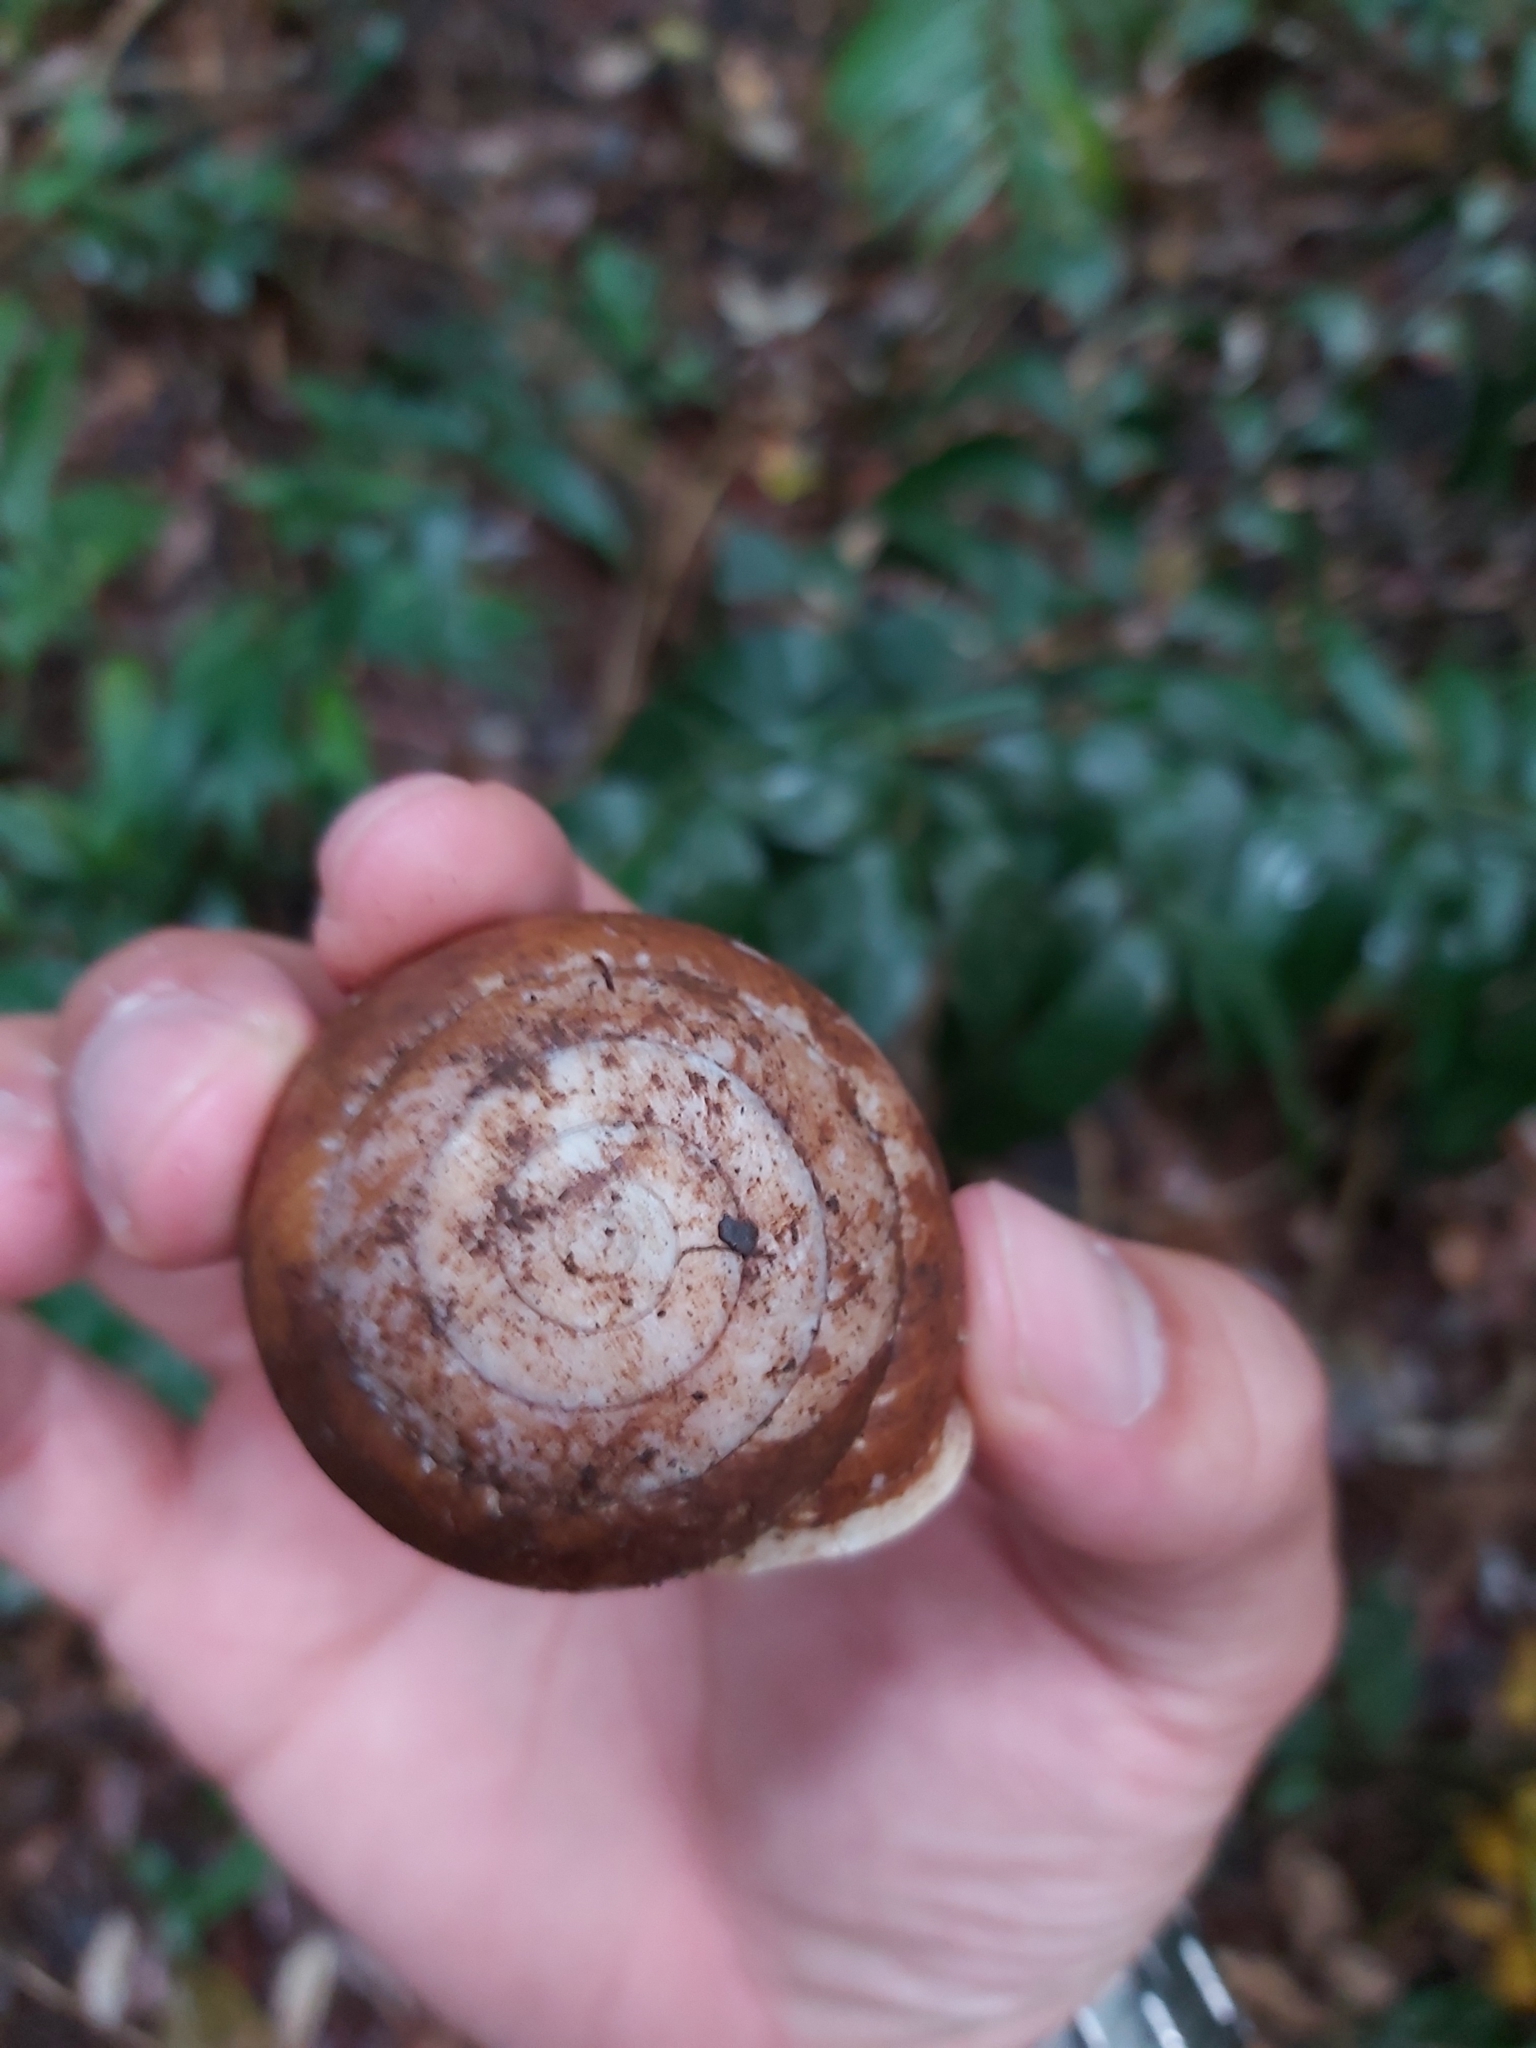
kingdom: Animalia
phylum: Mollusca
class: Gastropoda
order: Stylommatophora
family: Camaenidae
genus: Hadra
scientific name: Hadra webbi
